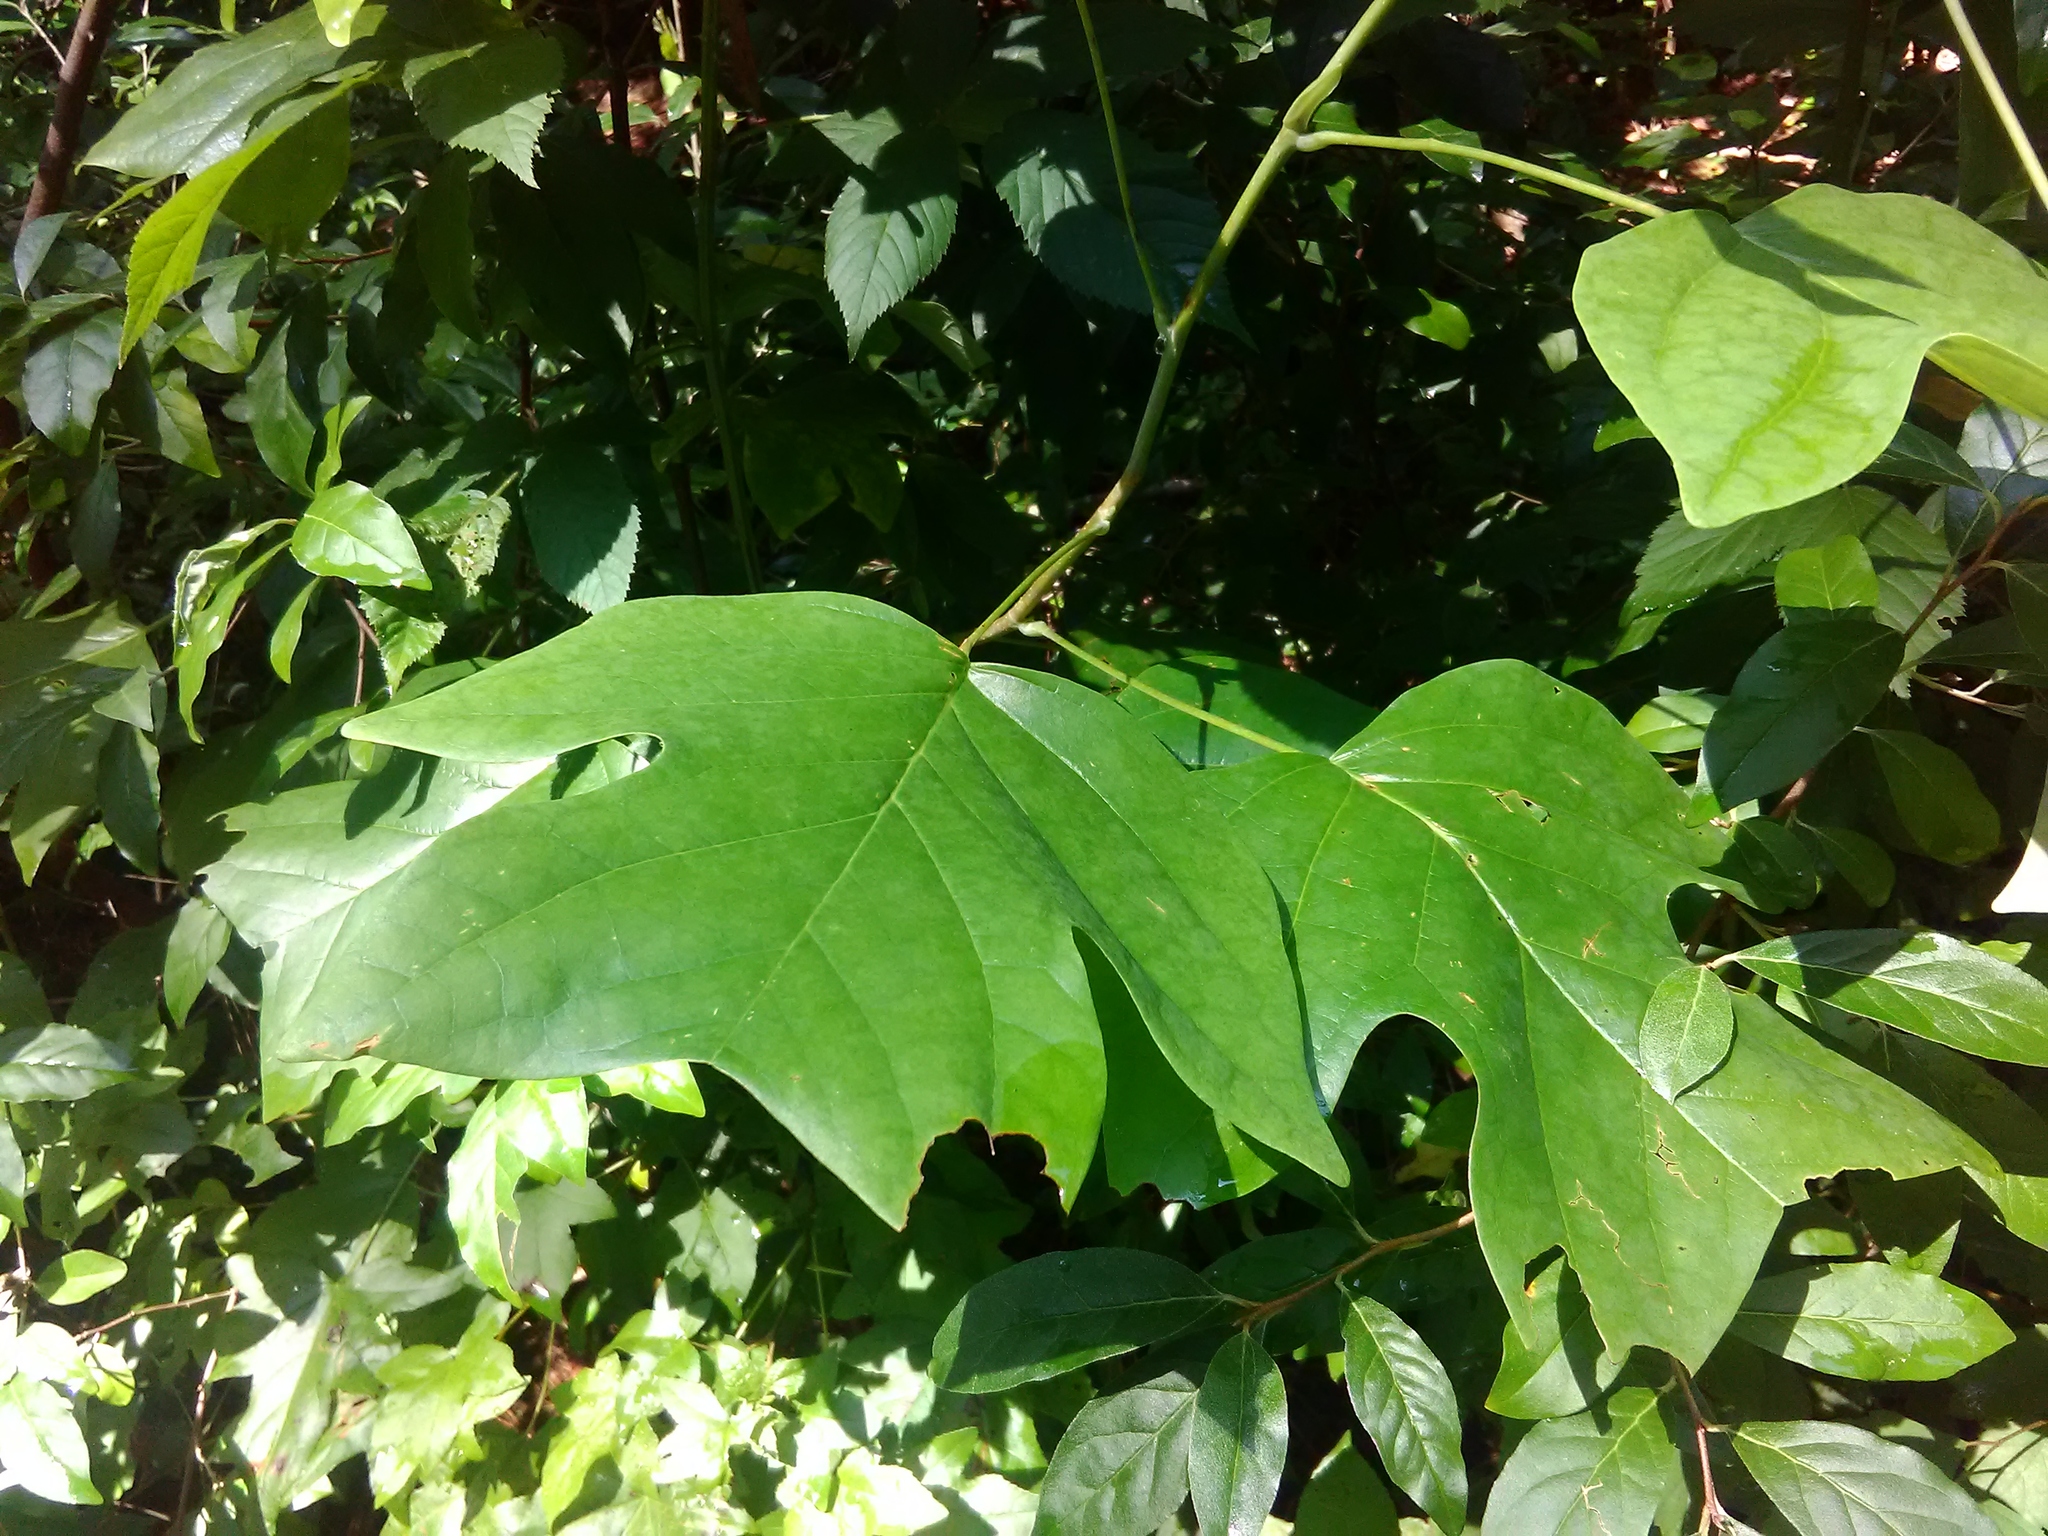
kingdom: Plantae
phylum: Tracheophyta
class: Magnoliopsida
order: Magnoliales
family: Magnoliaceae
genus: Liriodendron
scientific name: Liriodendron tulipifera
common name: Tulip tree
